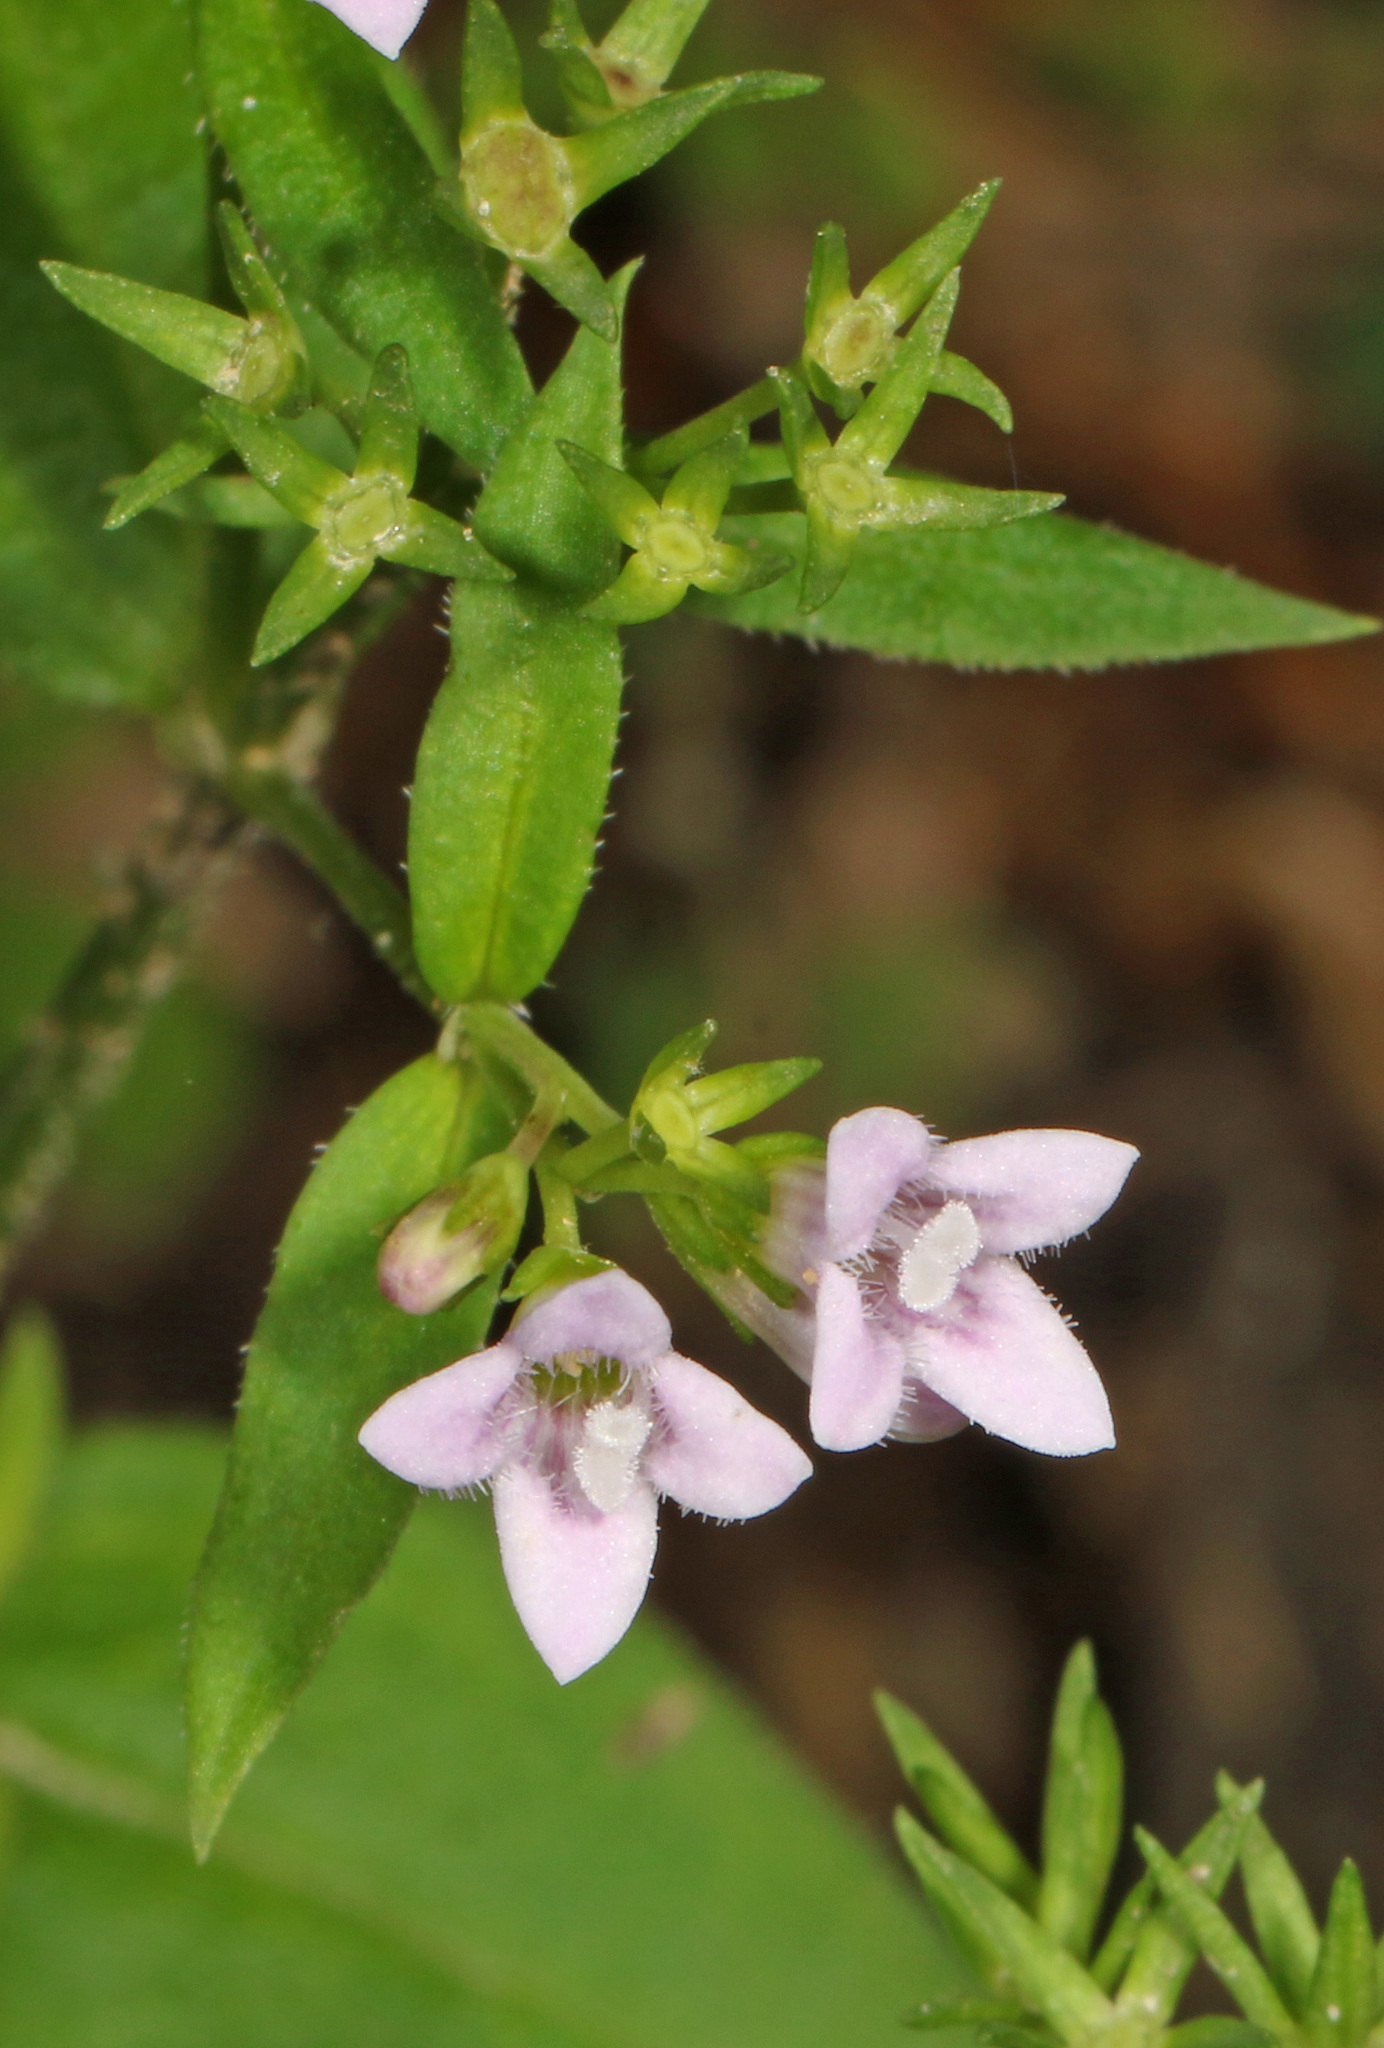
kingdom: Plantae
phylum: Tracheophyta
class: Magnoliopsida
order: Gentianales
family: Rubiaceae
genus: Houstonia
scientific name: Houstonia purpurea
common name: Summer bluet
